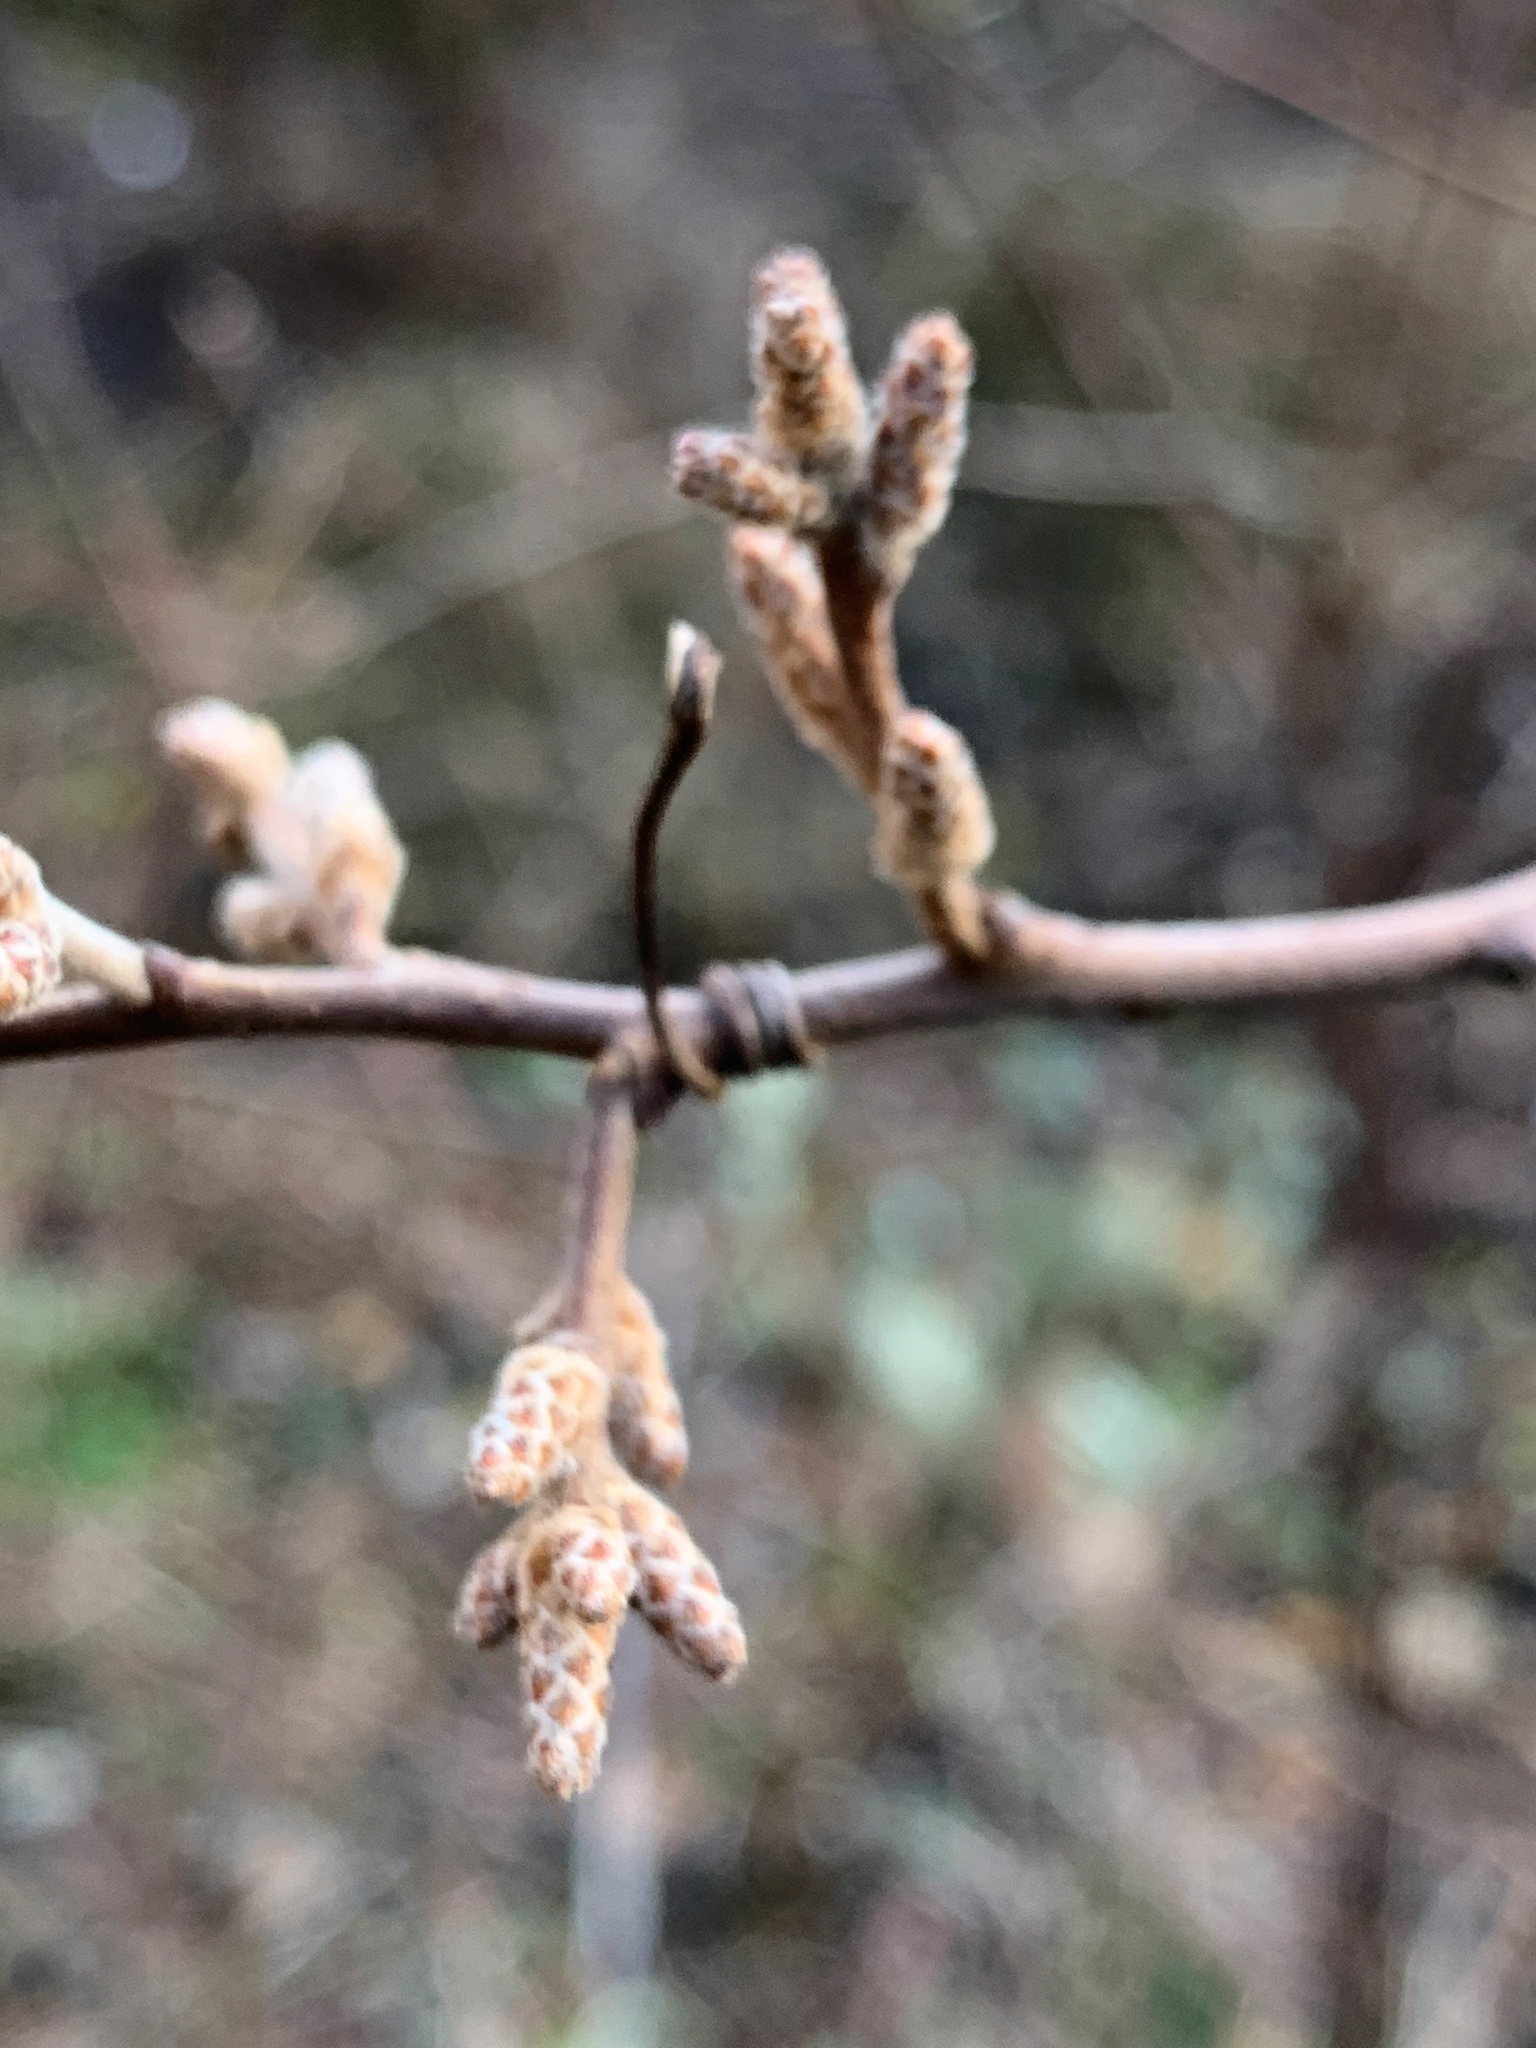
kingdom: Plantae
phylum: Tracheophyta
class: Magnoliopsida
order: Sapindales
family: Anacardiaceae
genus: Rhus
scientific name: Rhus aromatica
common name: Aromatic sumac
